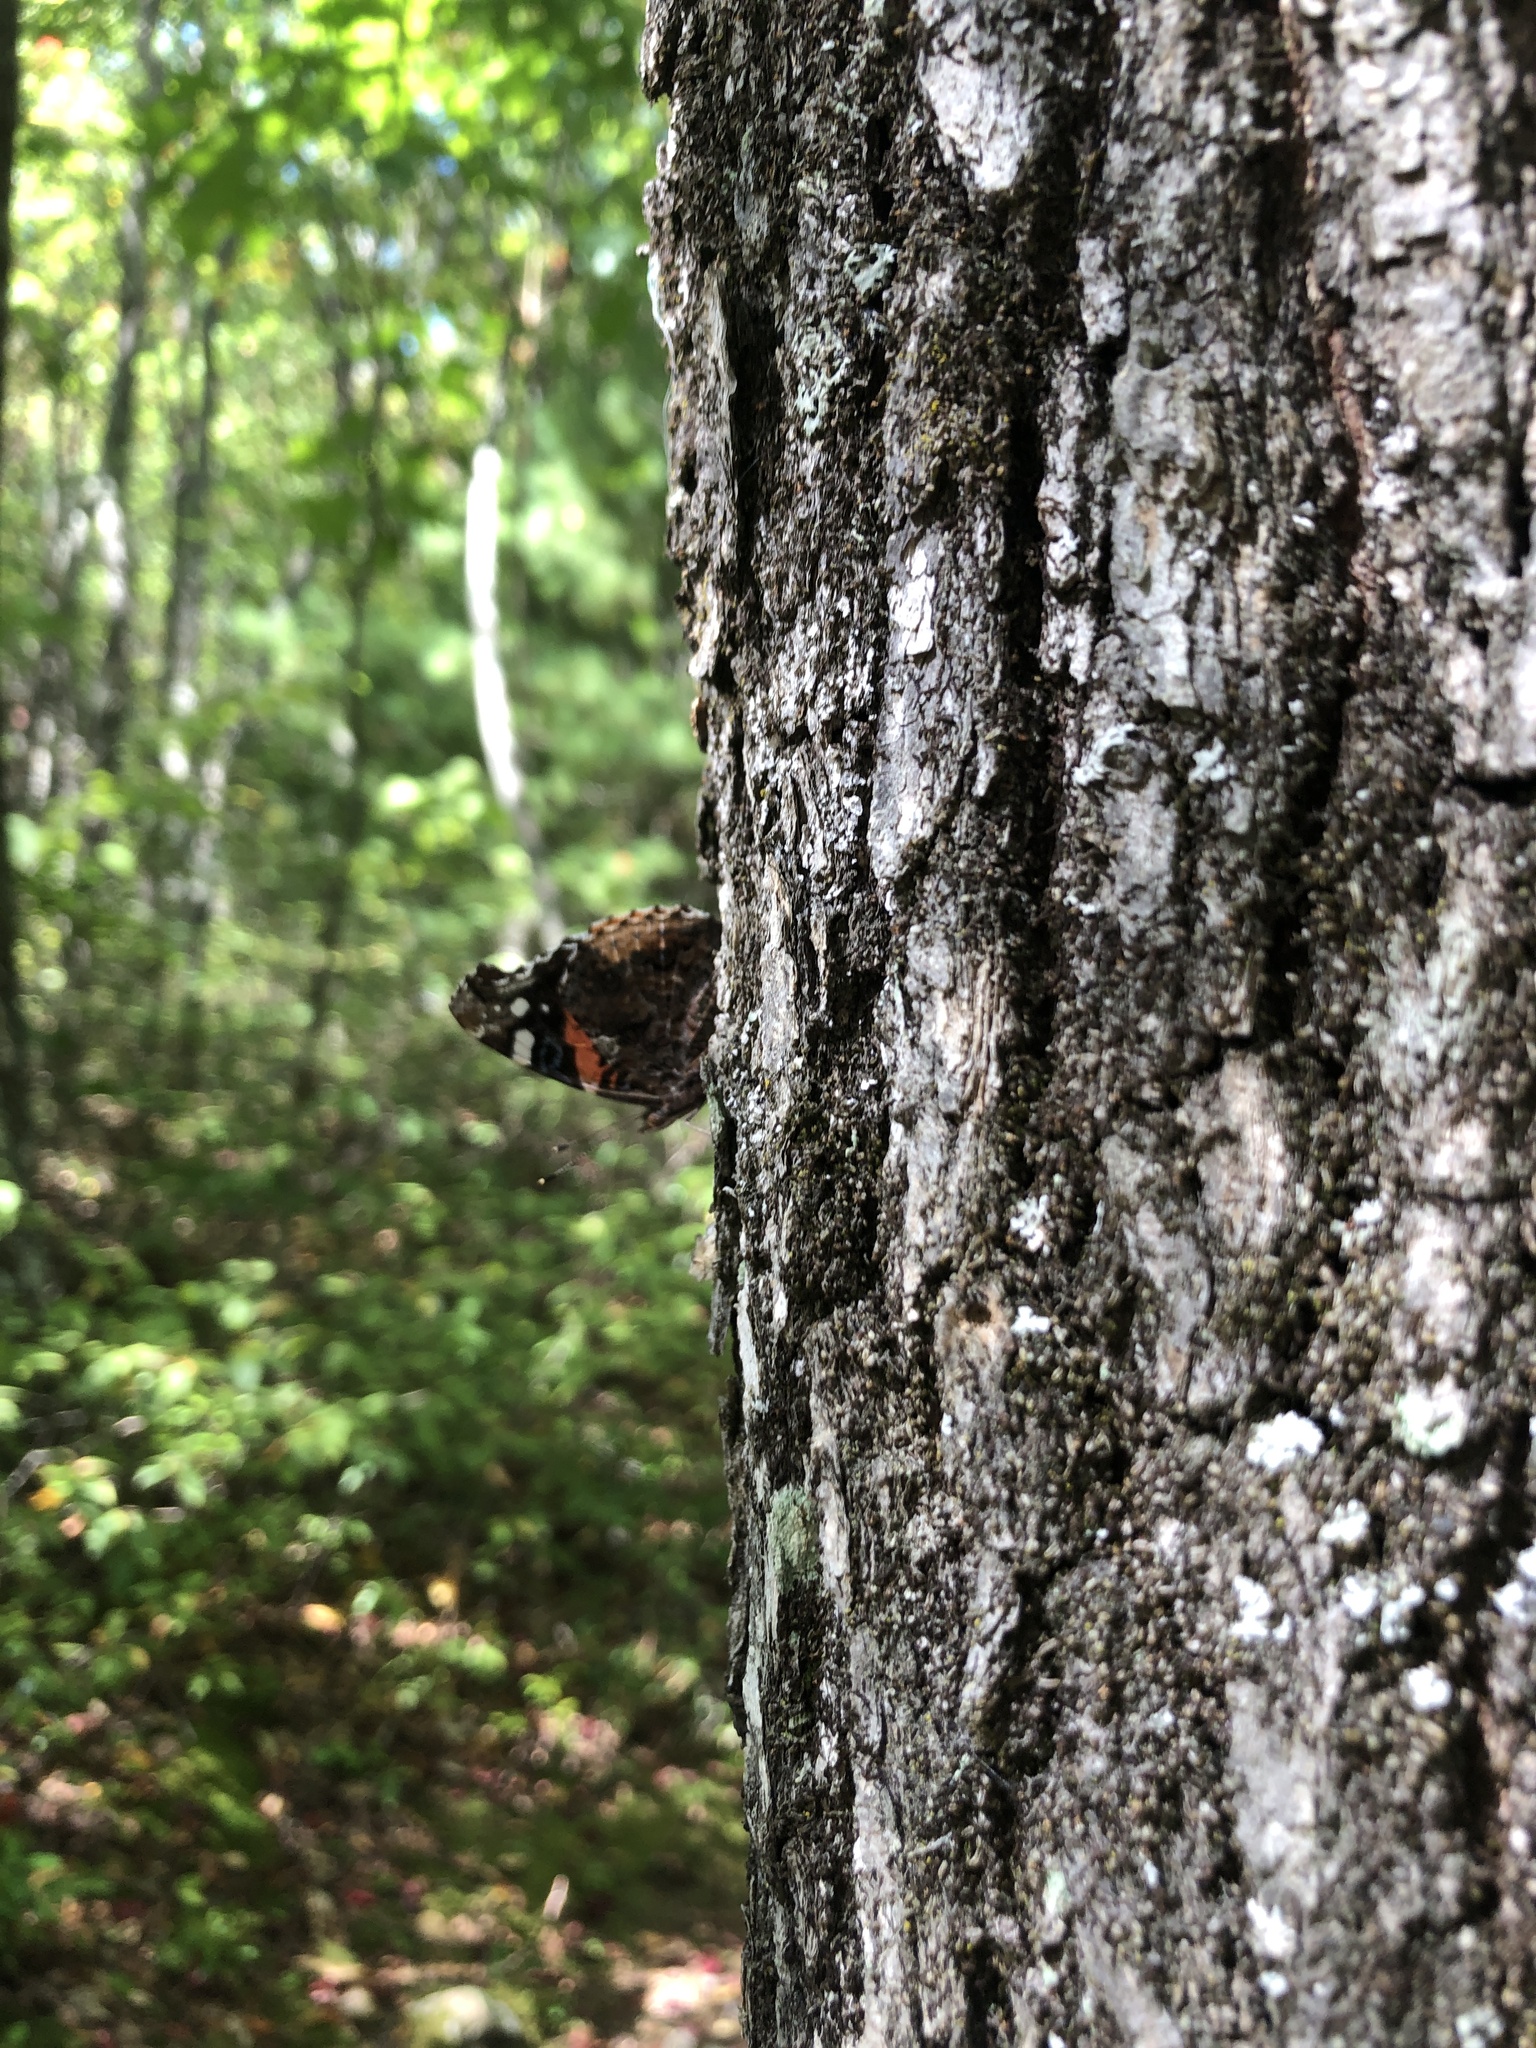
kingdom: Animalia
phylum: Arthropoda
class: Insecta
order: Lepidoptera
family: Nymphalidae
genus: Vanessa
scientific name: Vanessa atalanta
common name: Red admiral
